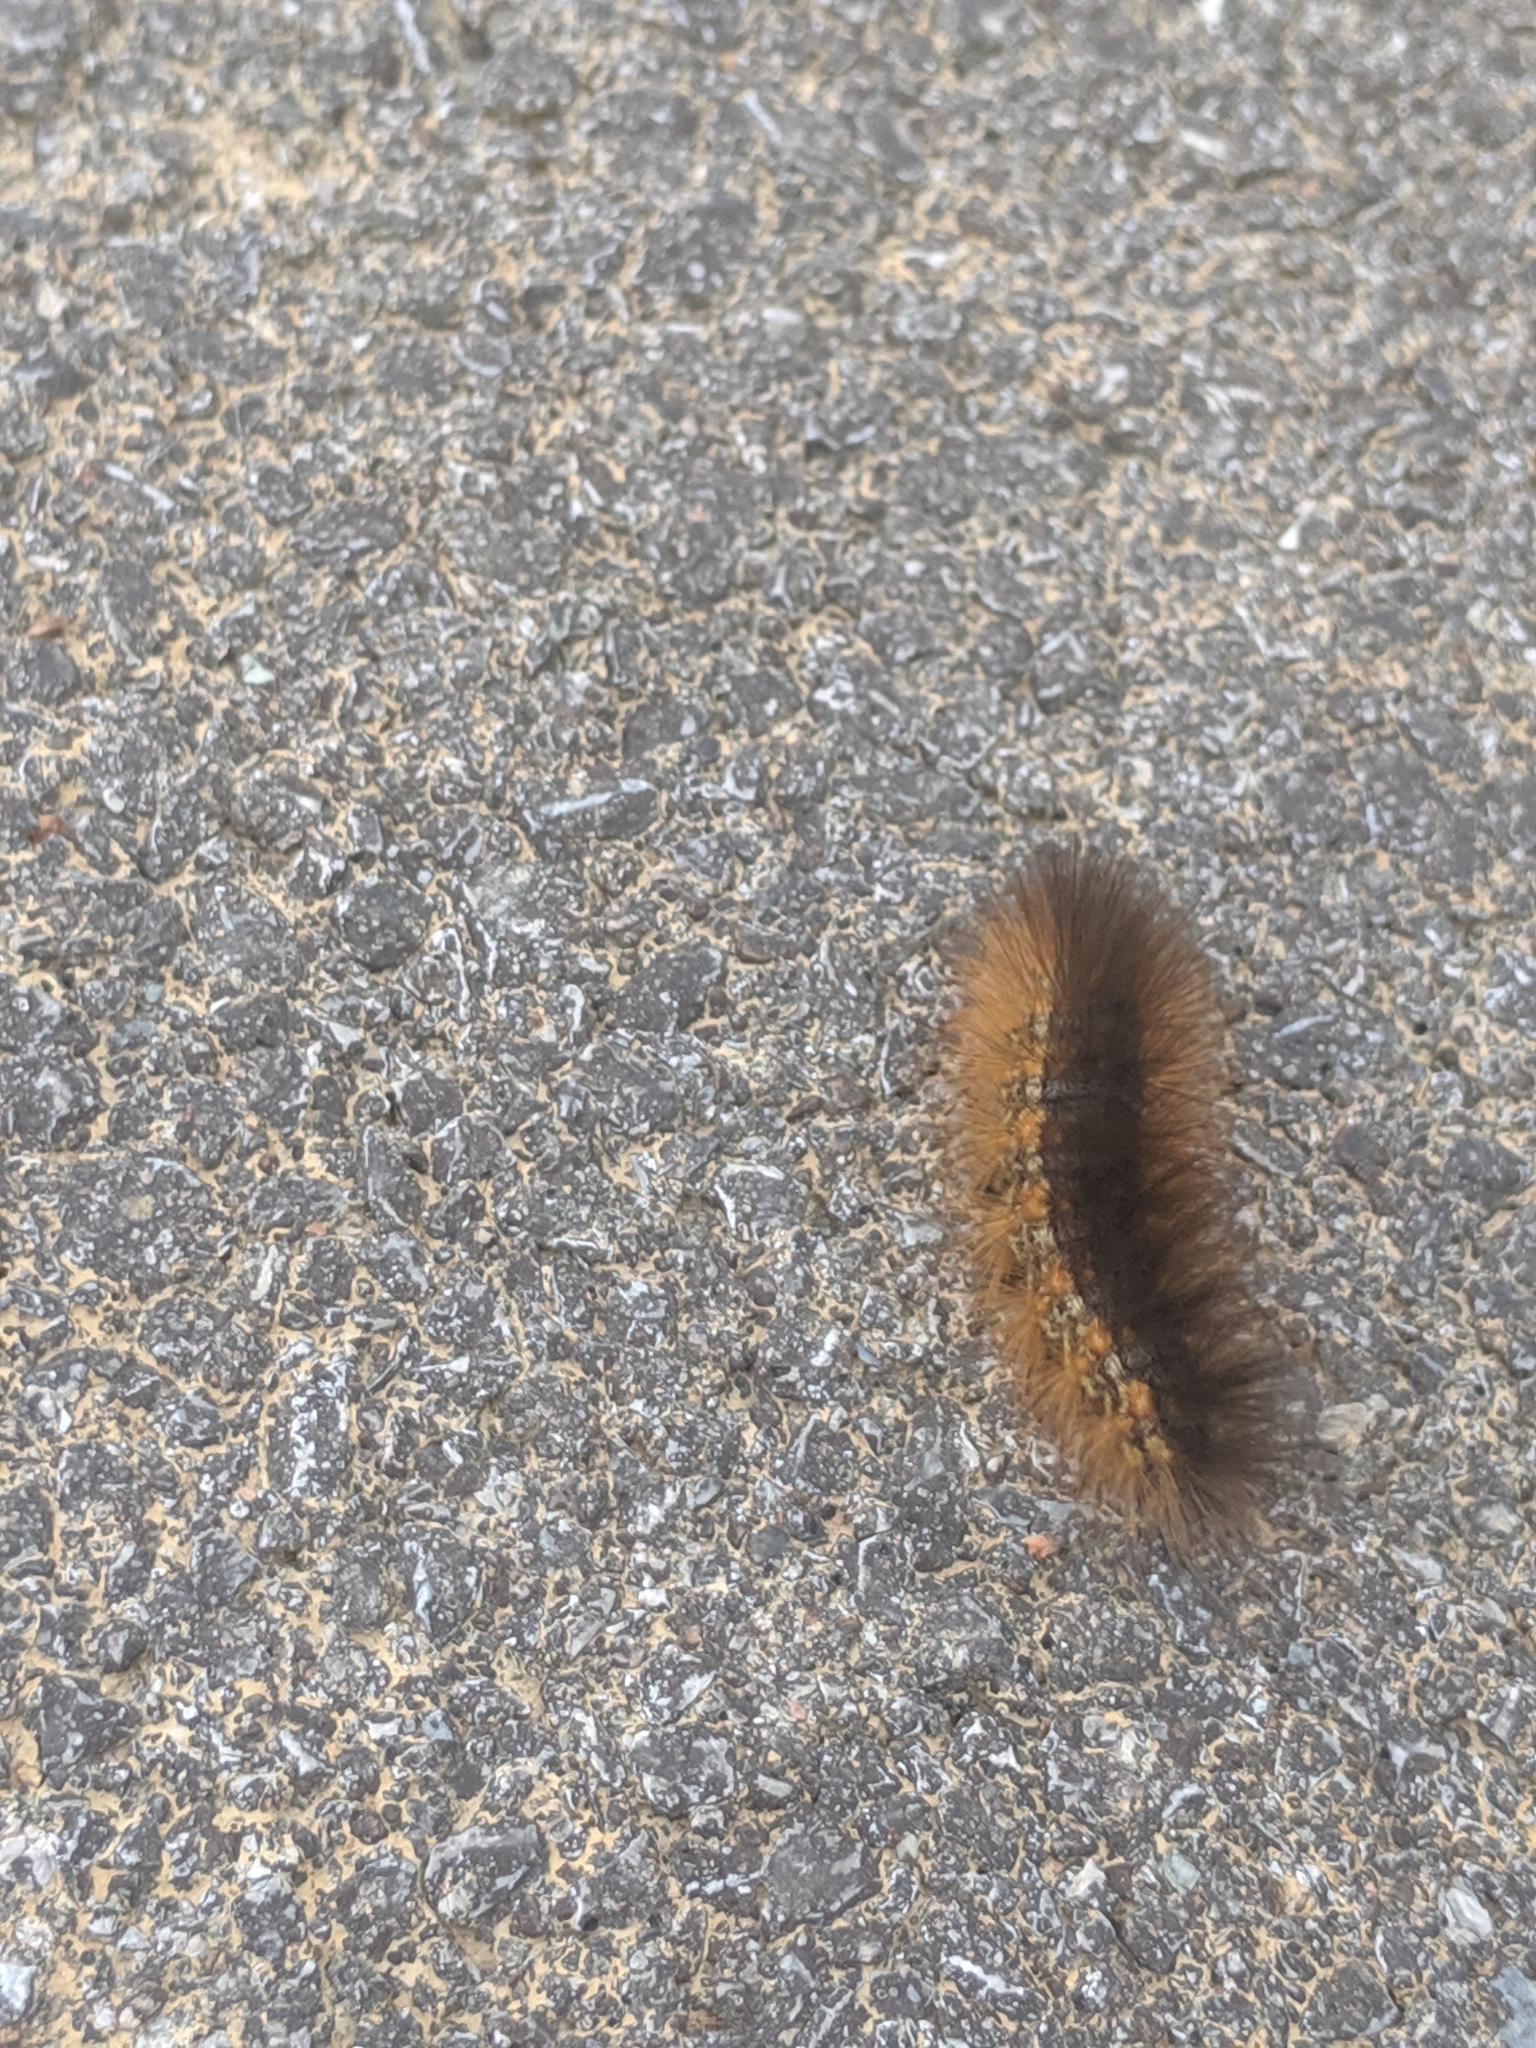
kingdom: Animalia
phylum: Arthropoda
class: Insecta
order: Lepidoptera
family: Erebidae
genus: Estigmene
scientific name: Estigmene acrea
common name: Salt marsh moth
